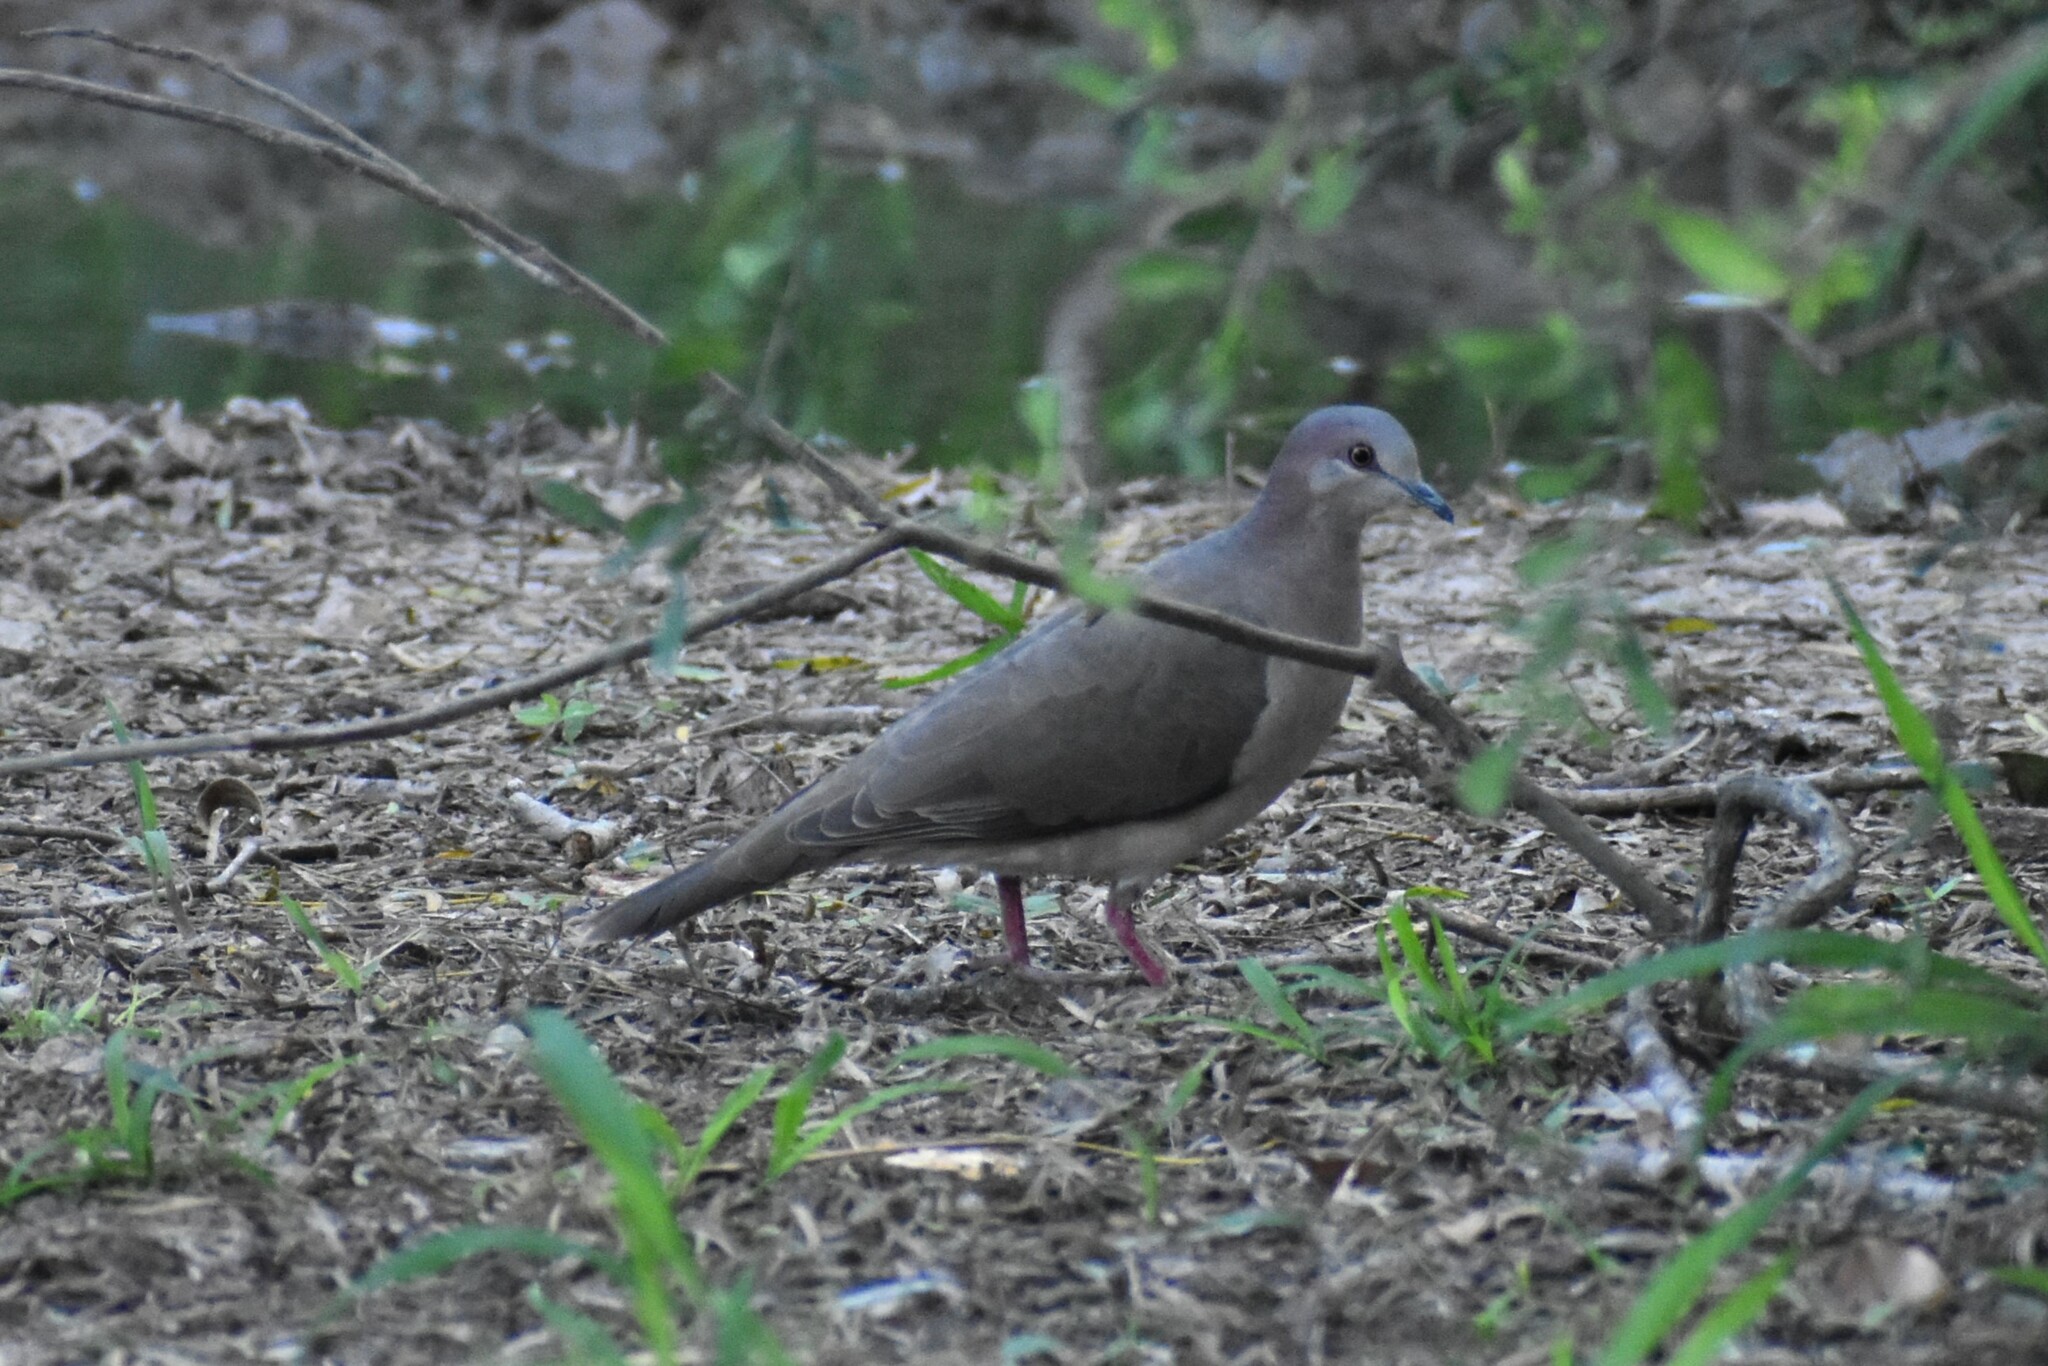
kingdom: Animalia
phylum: Chordata
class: Aves
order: Columbiformes
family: Columbidae
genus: Leptotila
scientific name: Leptotila verreauxi
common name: White-tipped dove
